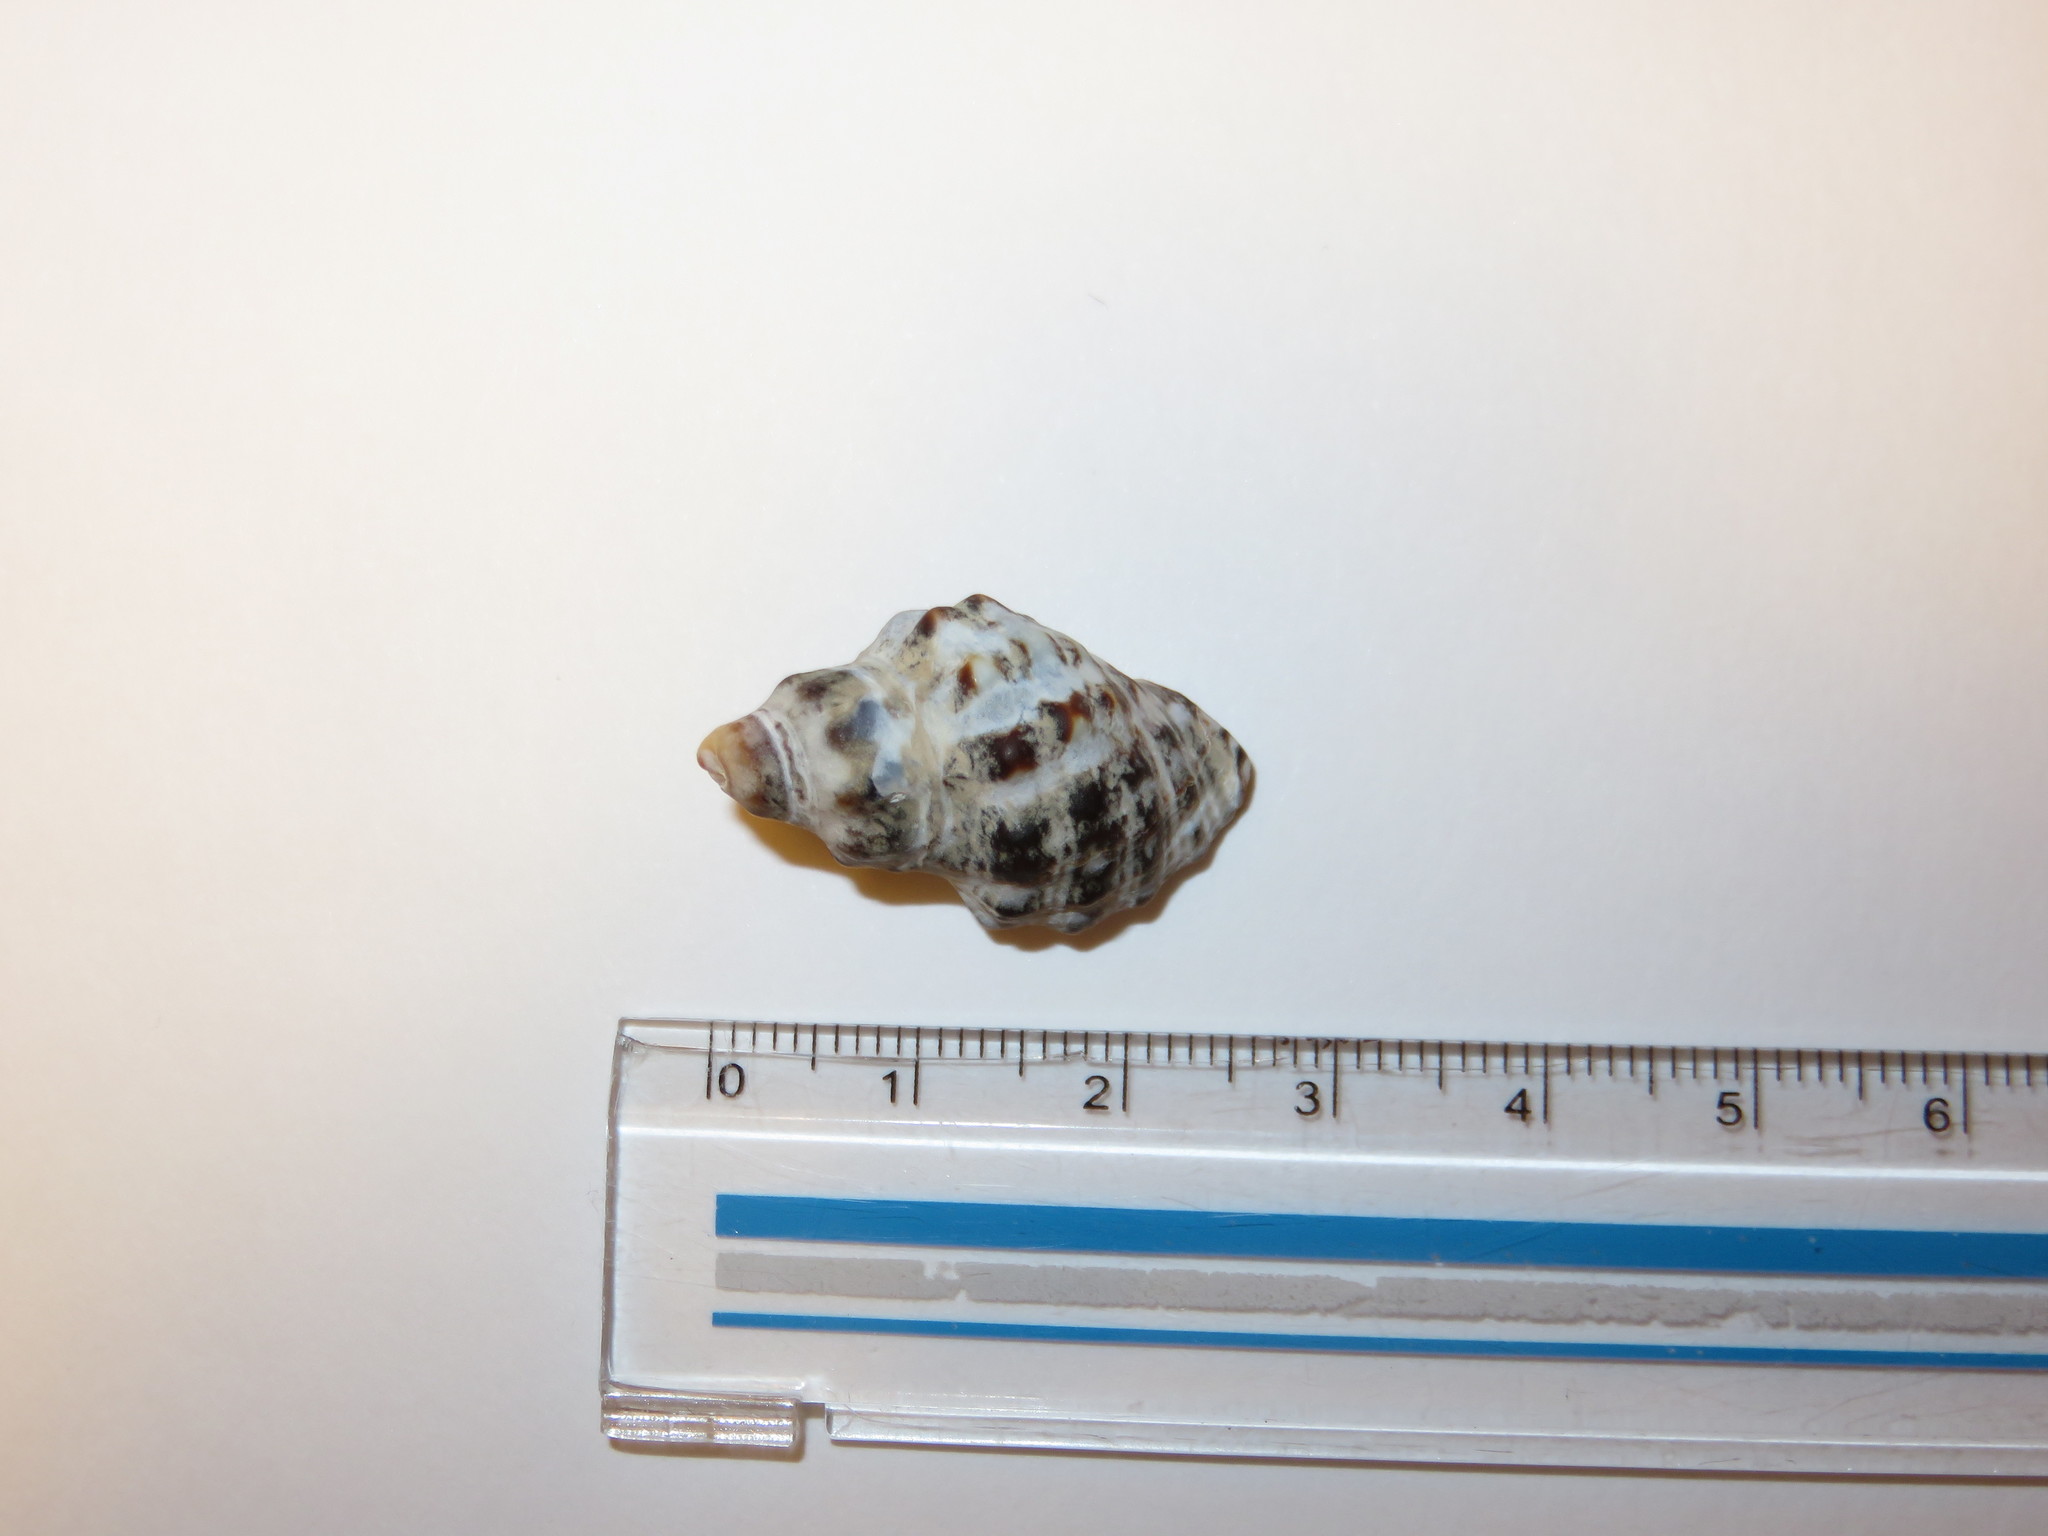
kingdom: Animalia
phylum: Mollusca
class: Gastropoda
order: Neogastropoda
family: Muricidae
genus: Reishia
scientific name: Reishia clavigera
